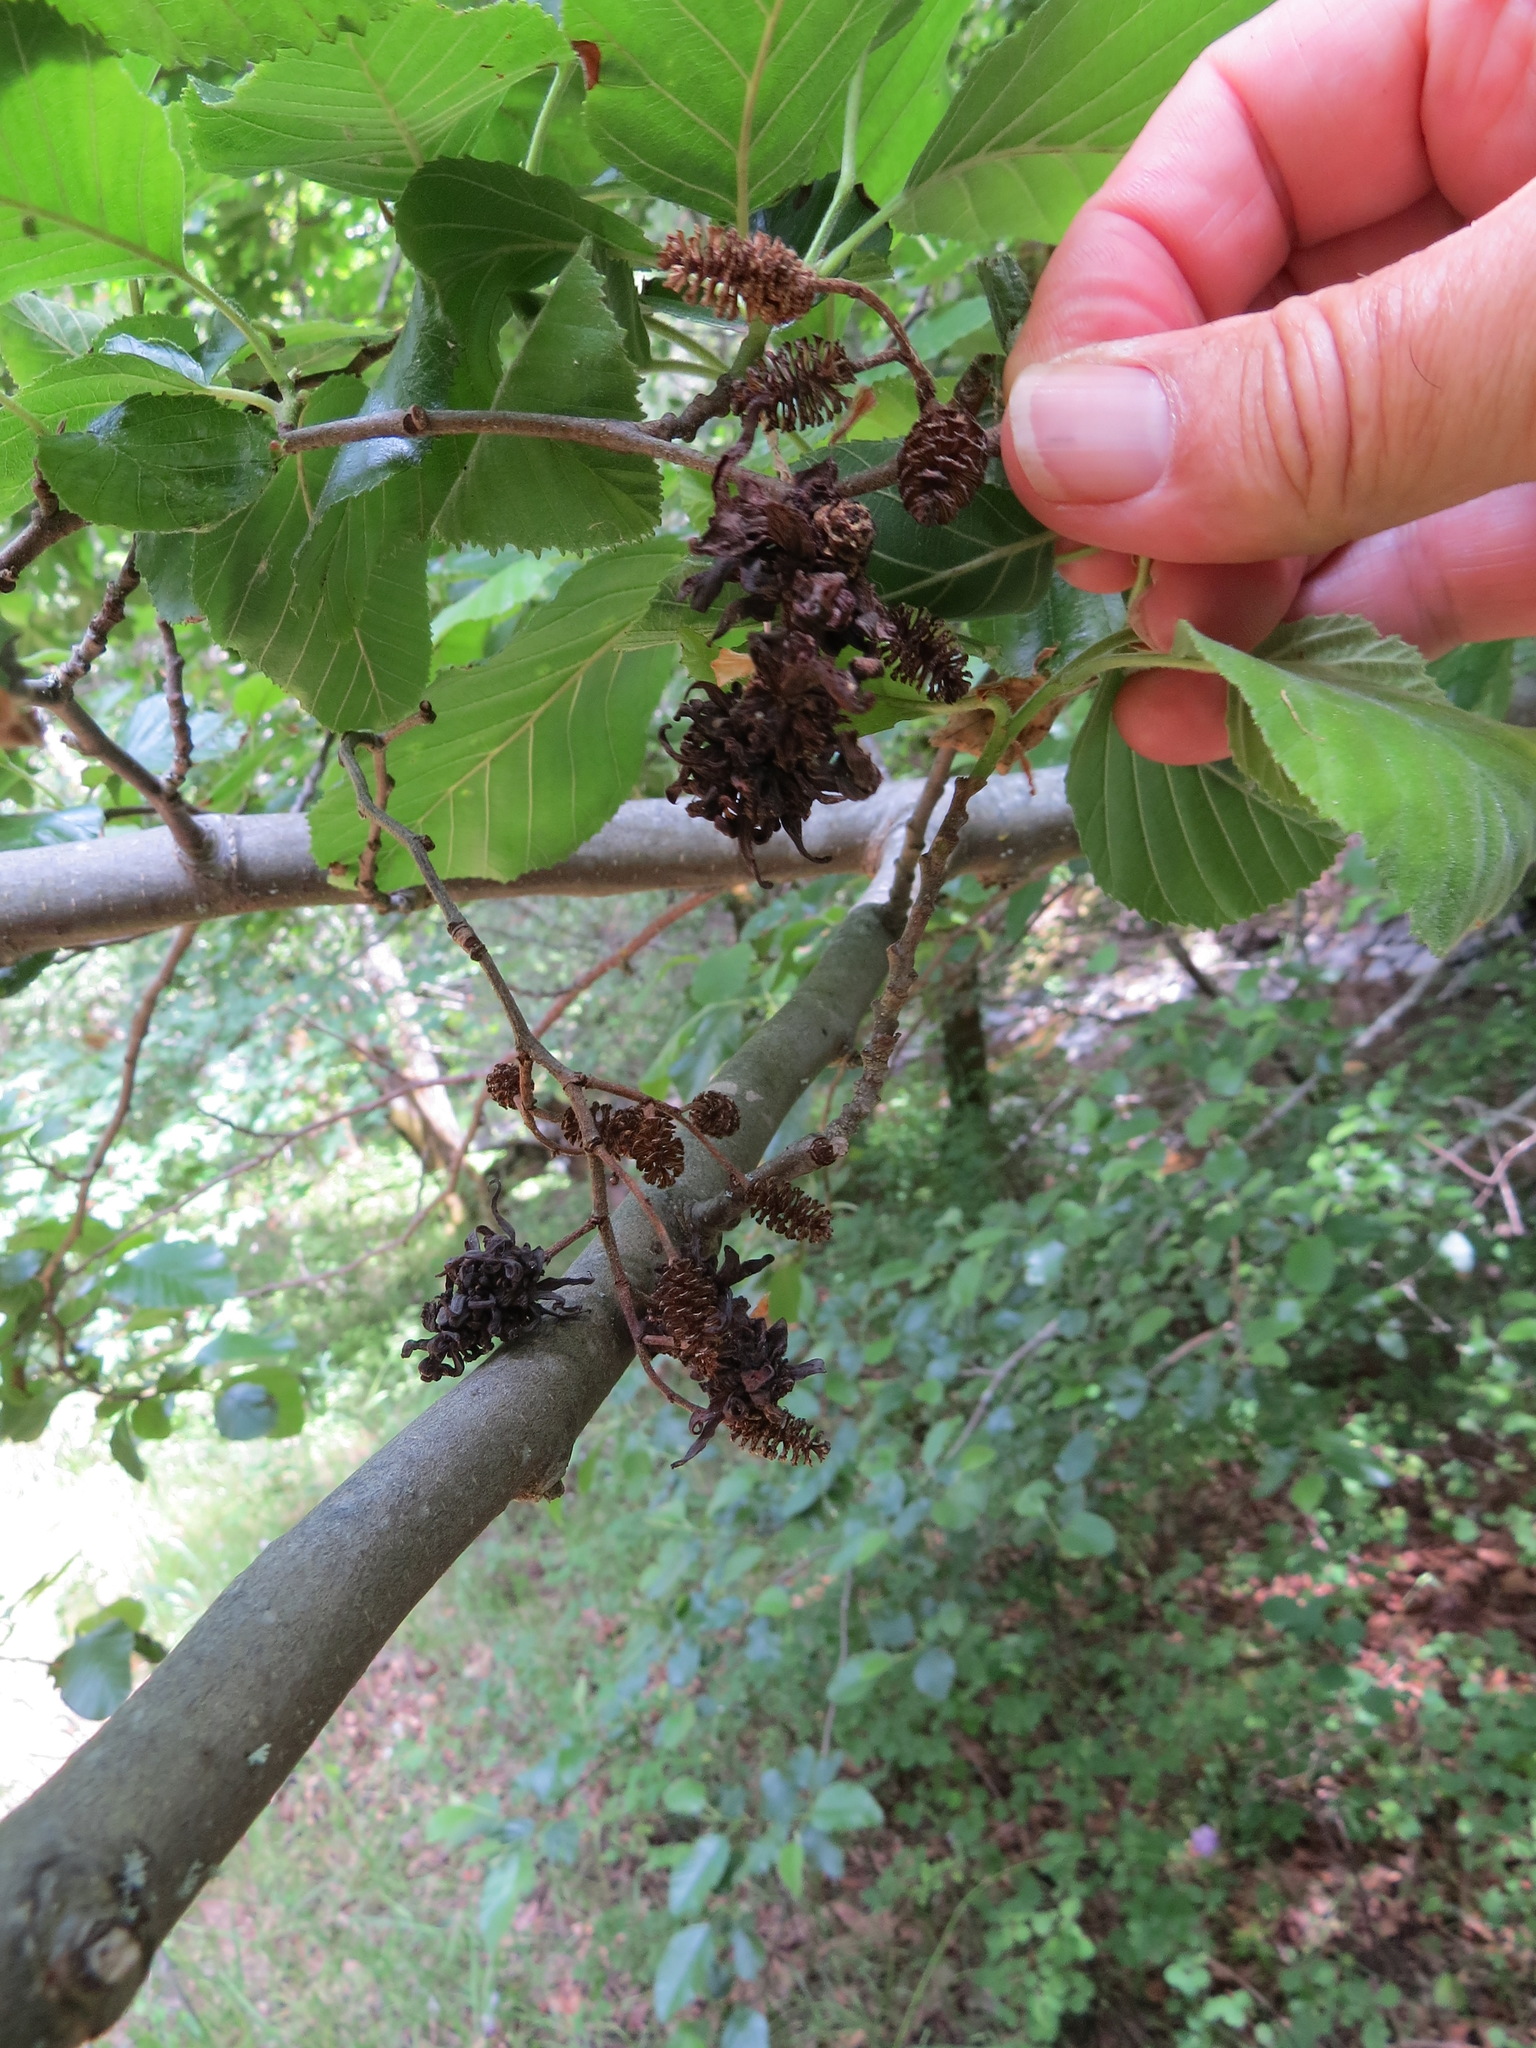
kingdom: Fungi
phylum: Ascomycota
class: Taphrinomycetes
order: Taphrinales
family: Taphrinaceae
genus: Taphrina
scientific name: Taphrina occidentalis
